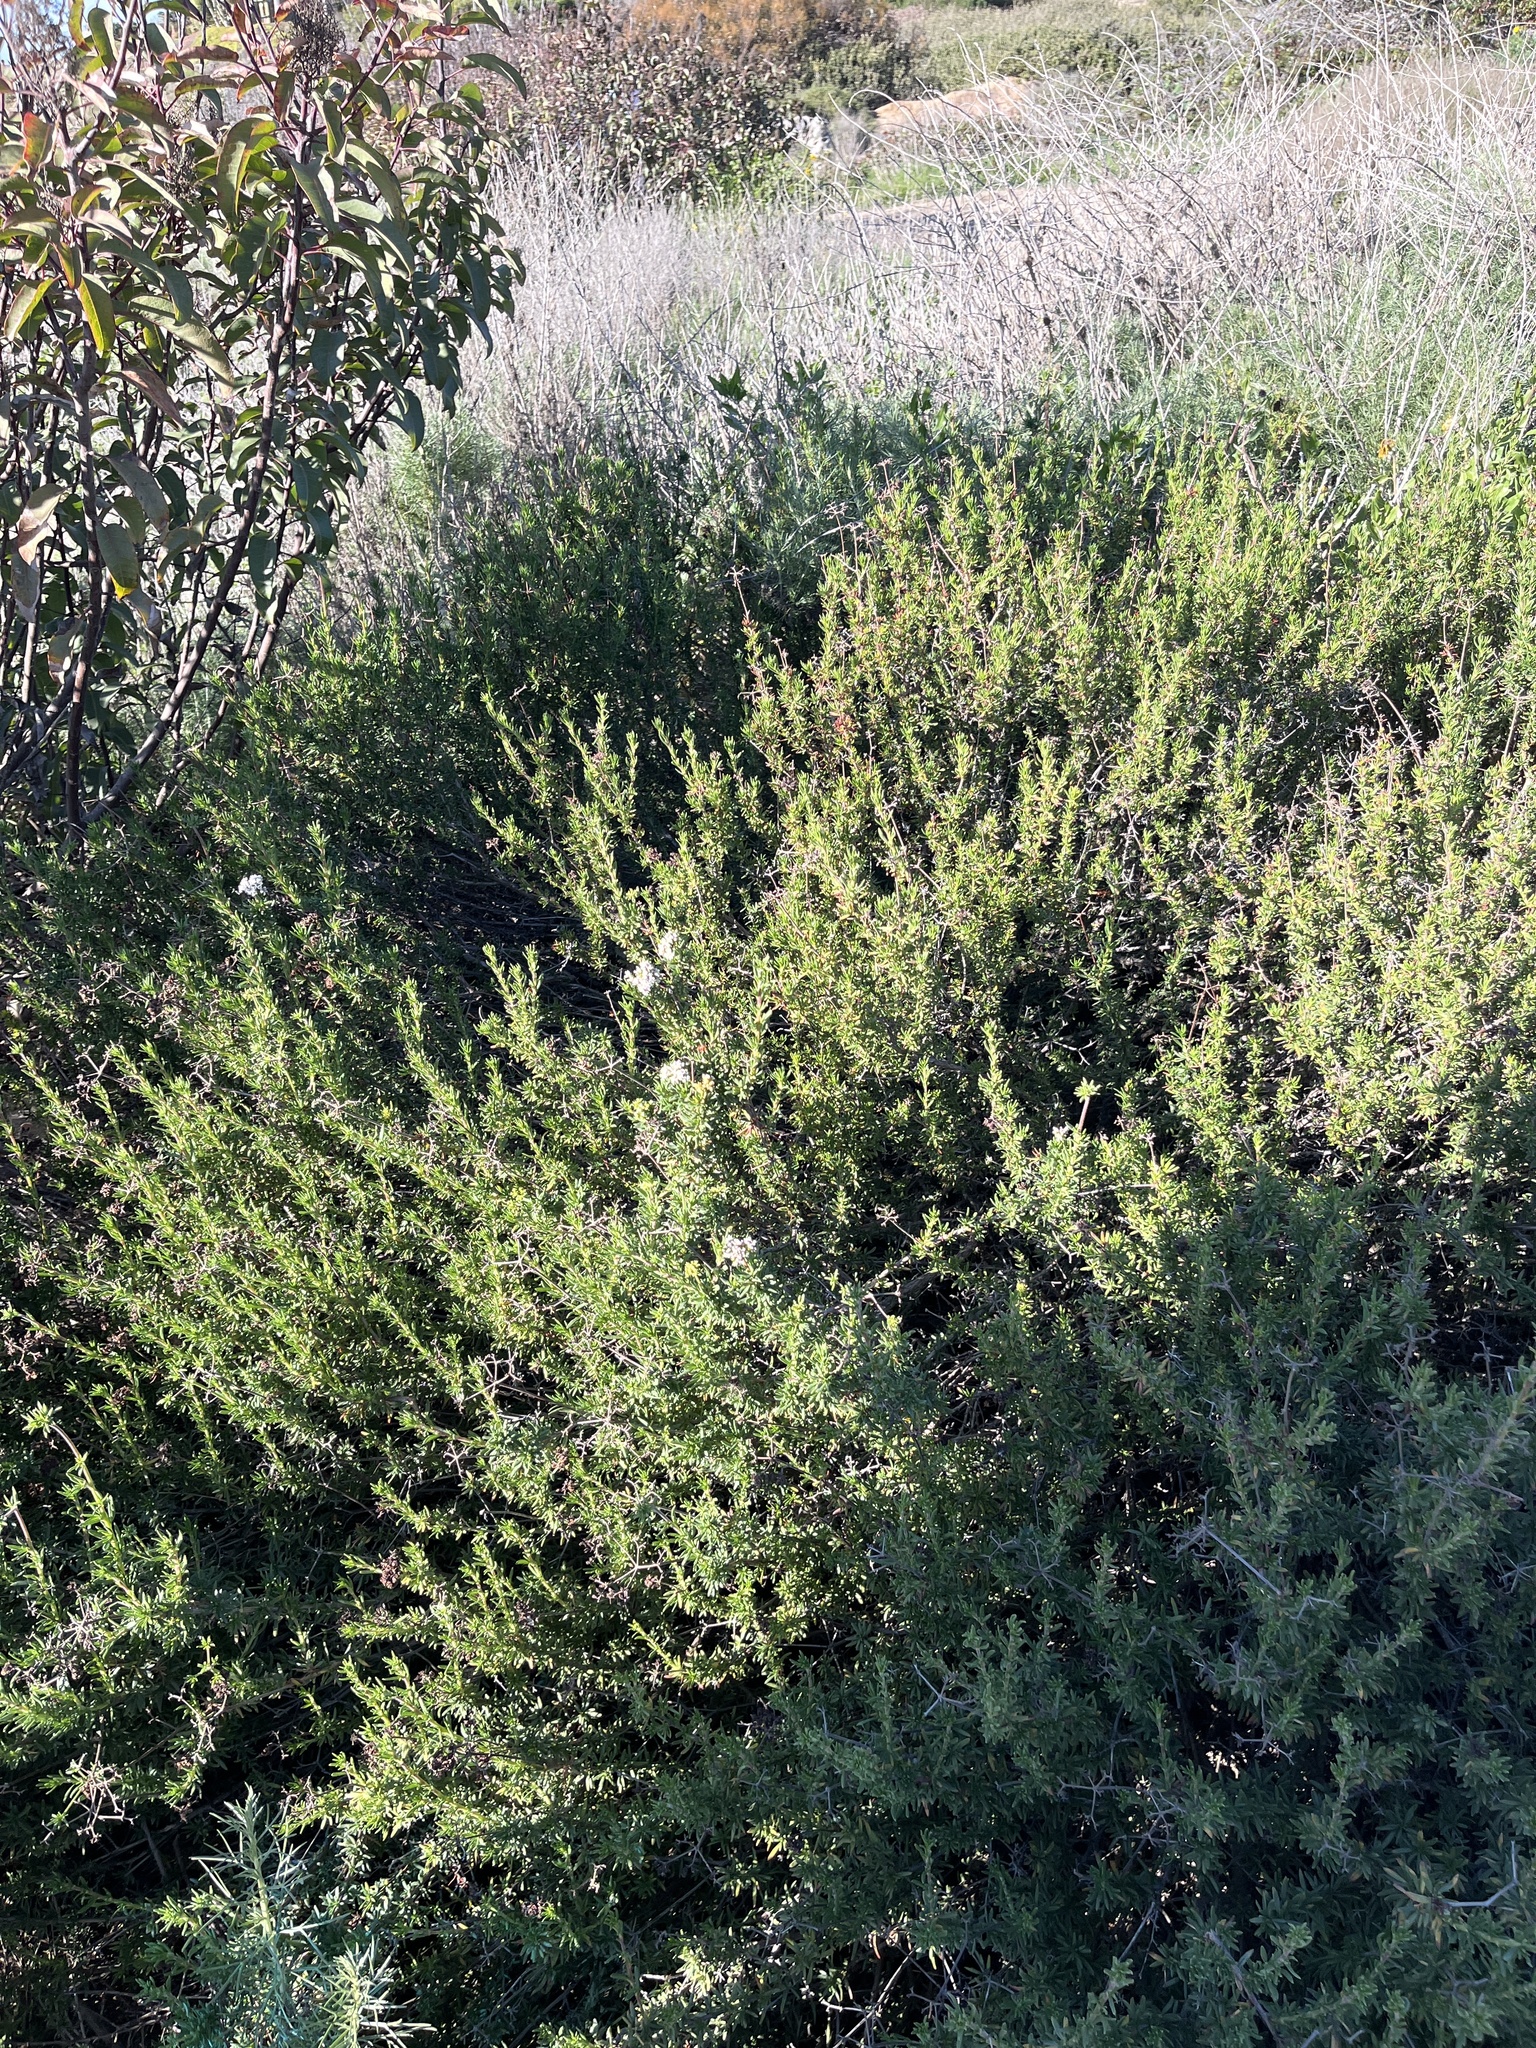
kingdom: Plantae
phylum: Tracheophyta
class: Magnoliopsida
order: Caryophyllales
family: Polygonaceae
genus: Eriogonum
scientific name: Eriogonum fasciculatum
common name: California wild buckwheat
